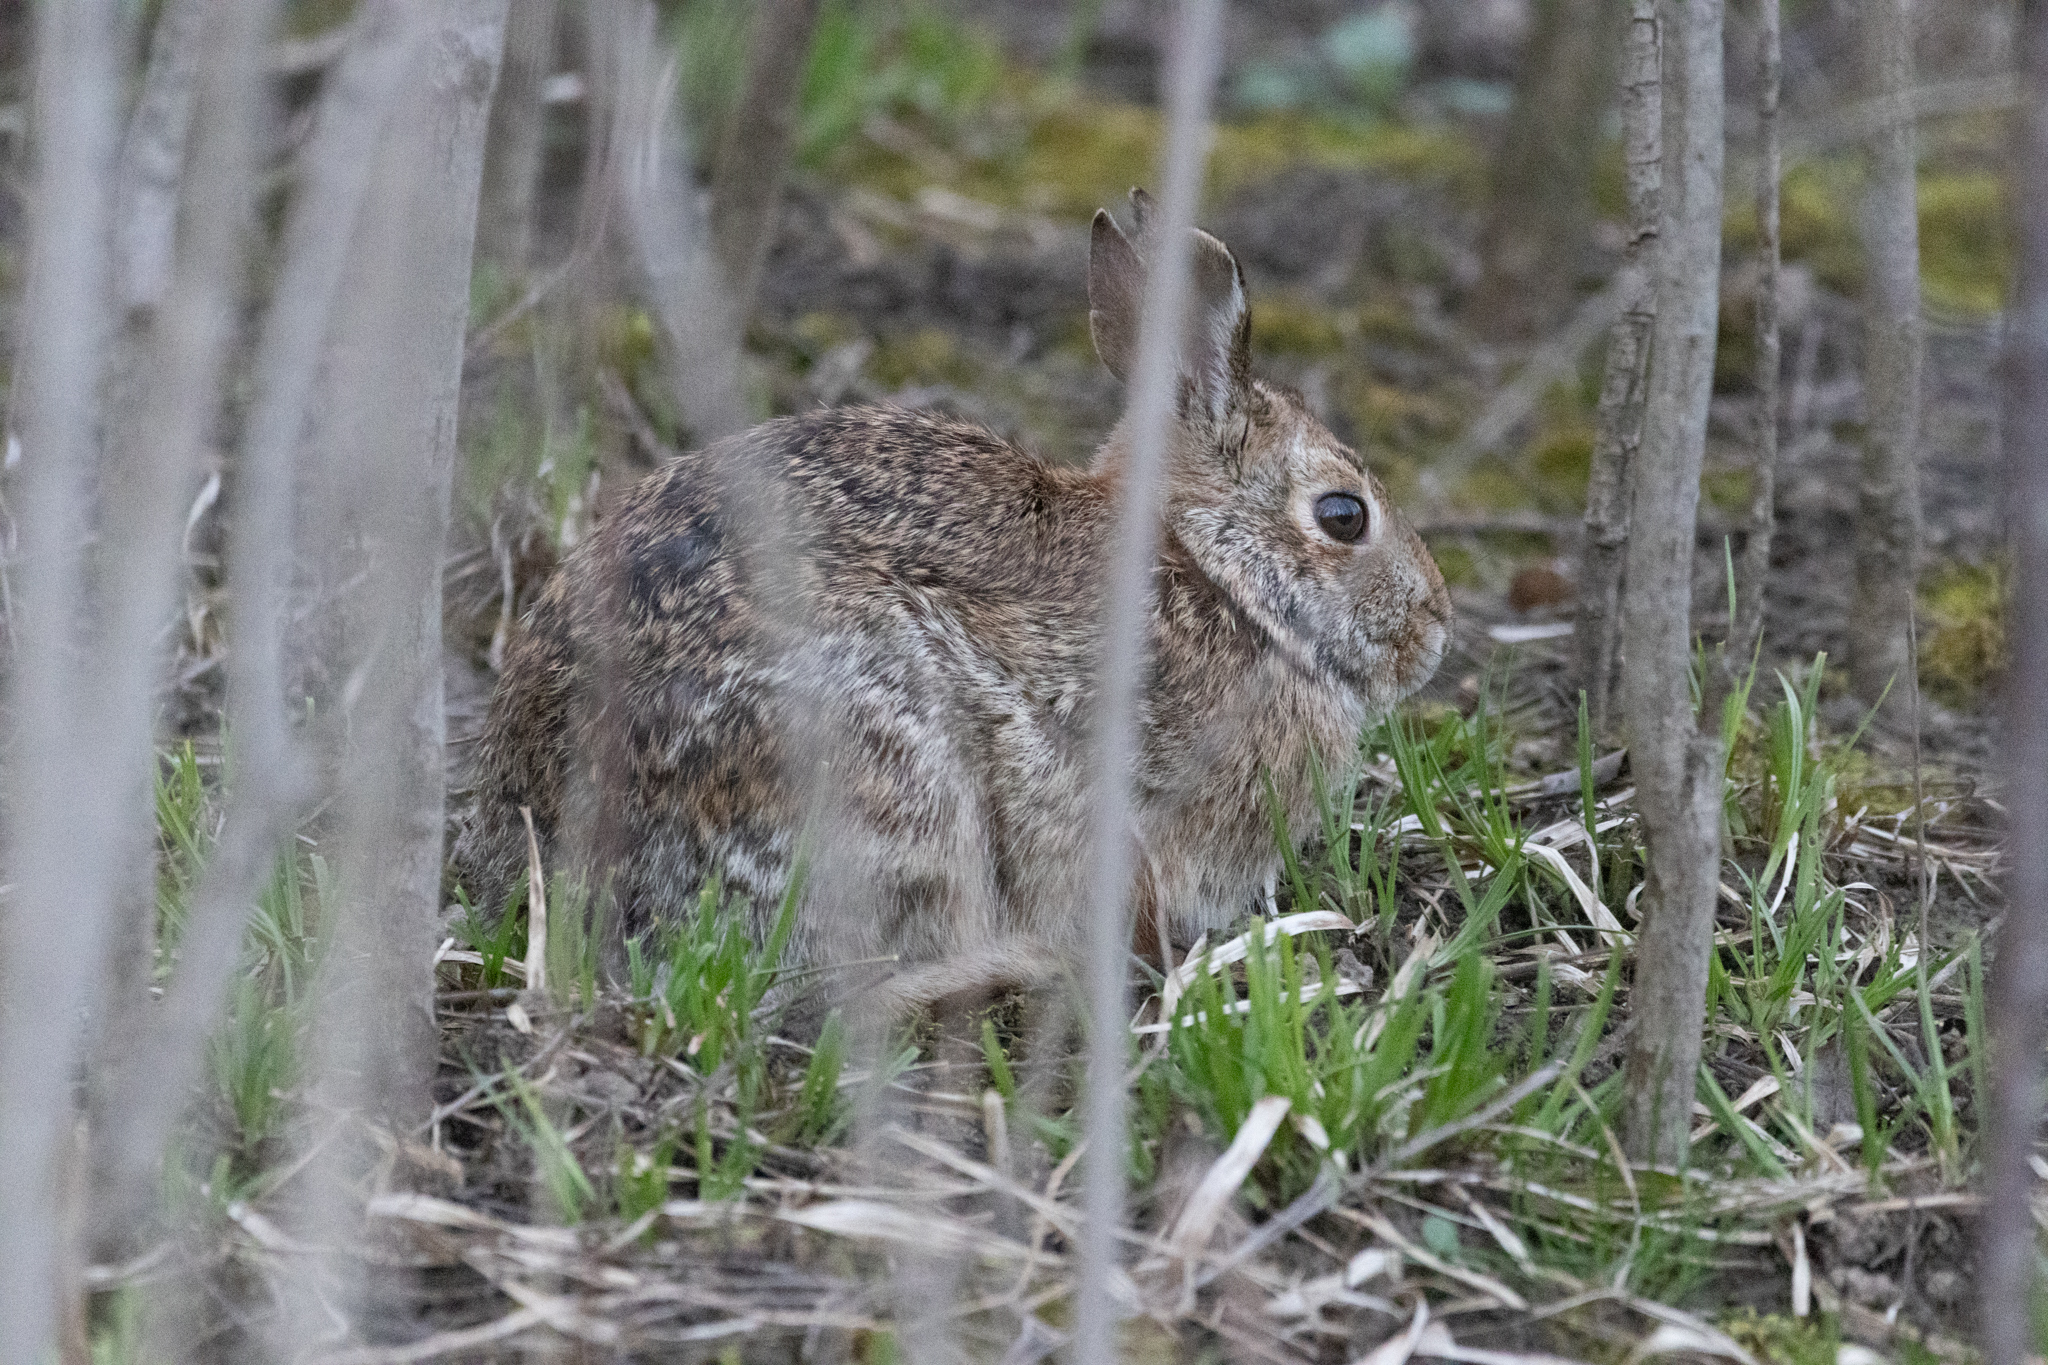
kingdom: Animalia
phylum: Chordata
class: Mammalia
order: Lagomorpha
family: Leporidae
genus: Sylvilagus
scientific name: Sylvilagus floridanus
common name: Eastern cottontail
